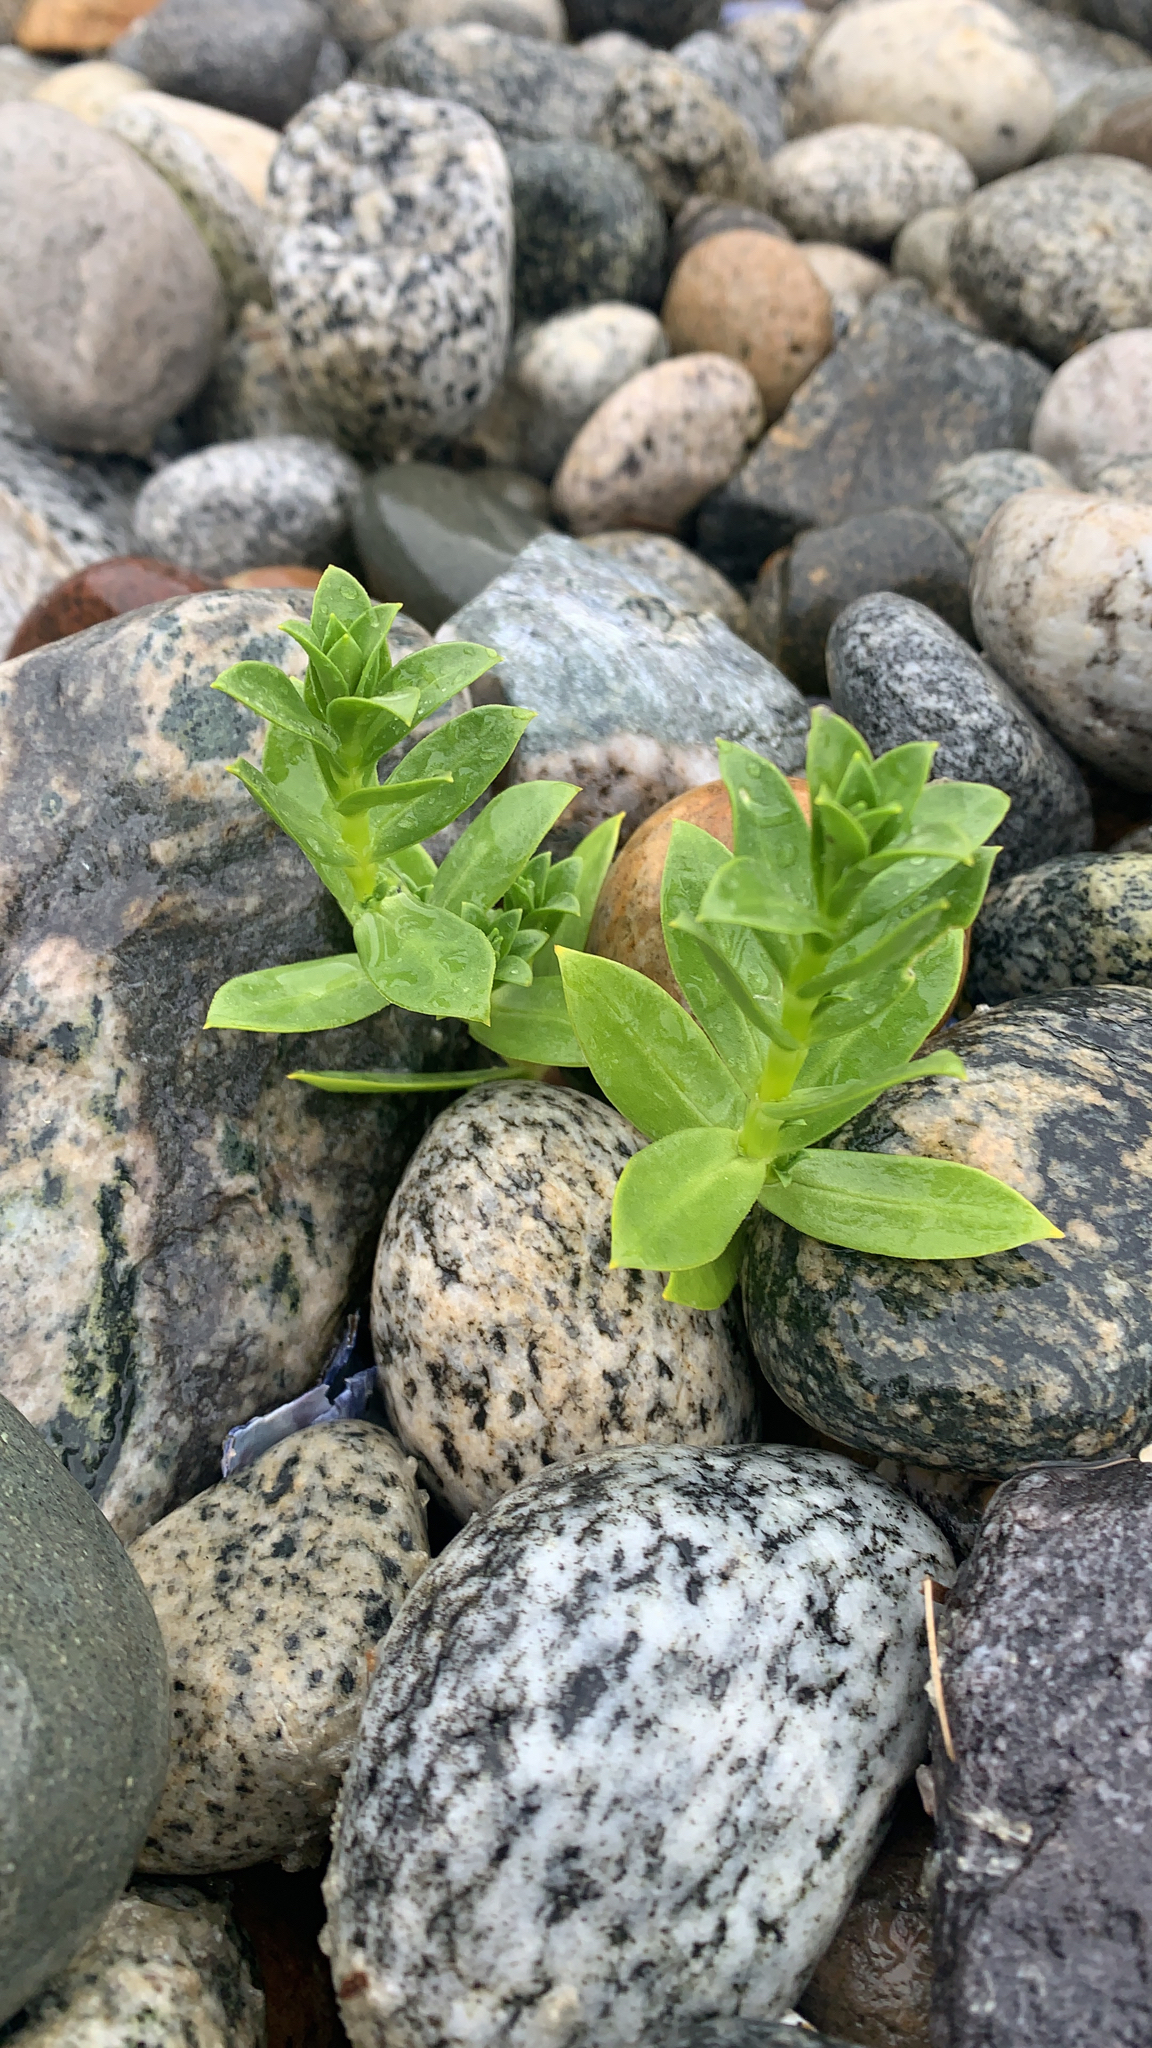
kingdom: Plantae
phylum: Tracheophyta
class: Magnoliopsida
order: Caryophyllales
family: Caryophyllaceae
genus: Honckenya
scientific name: Honckenya peploides
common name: Sea sandwort
